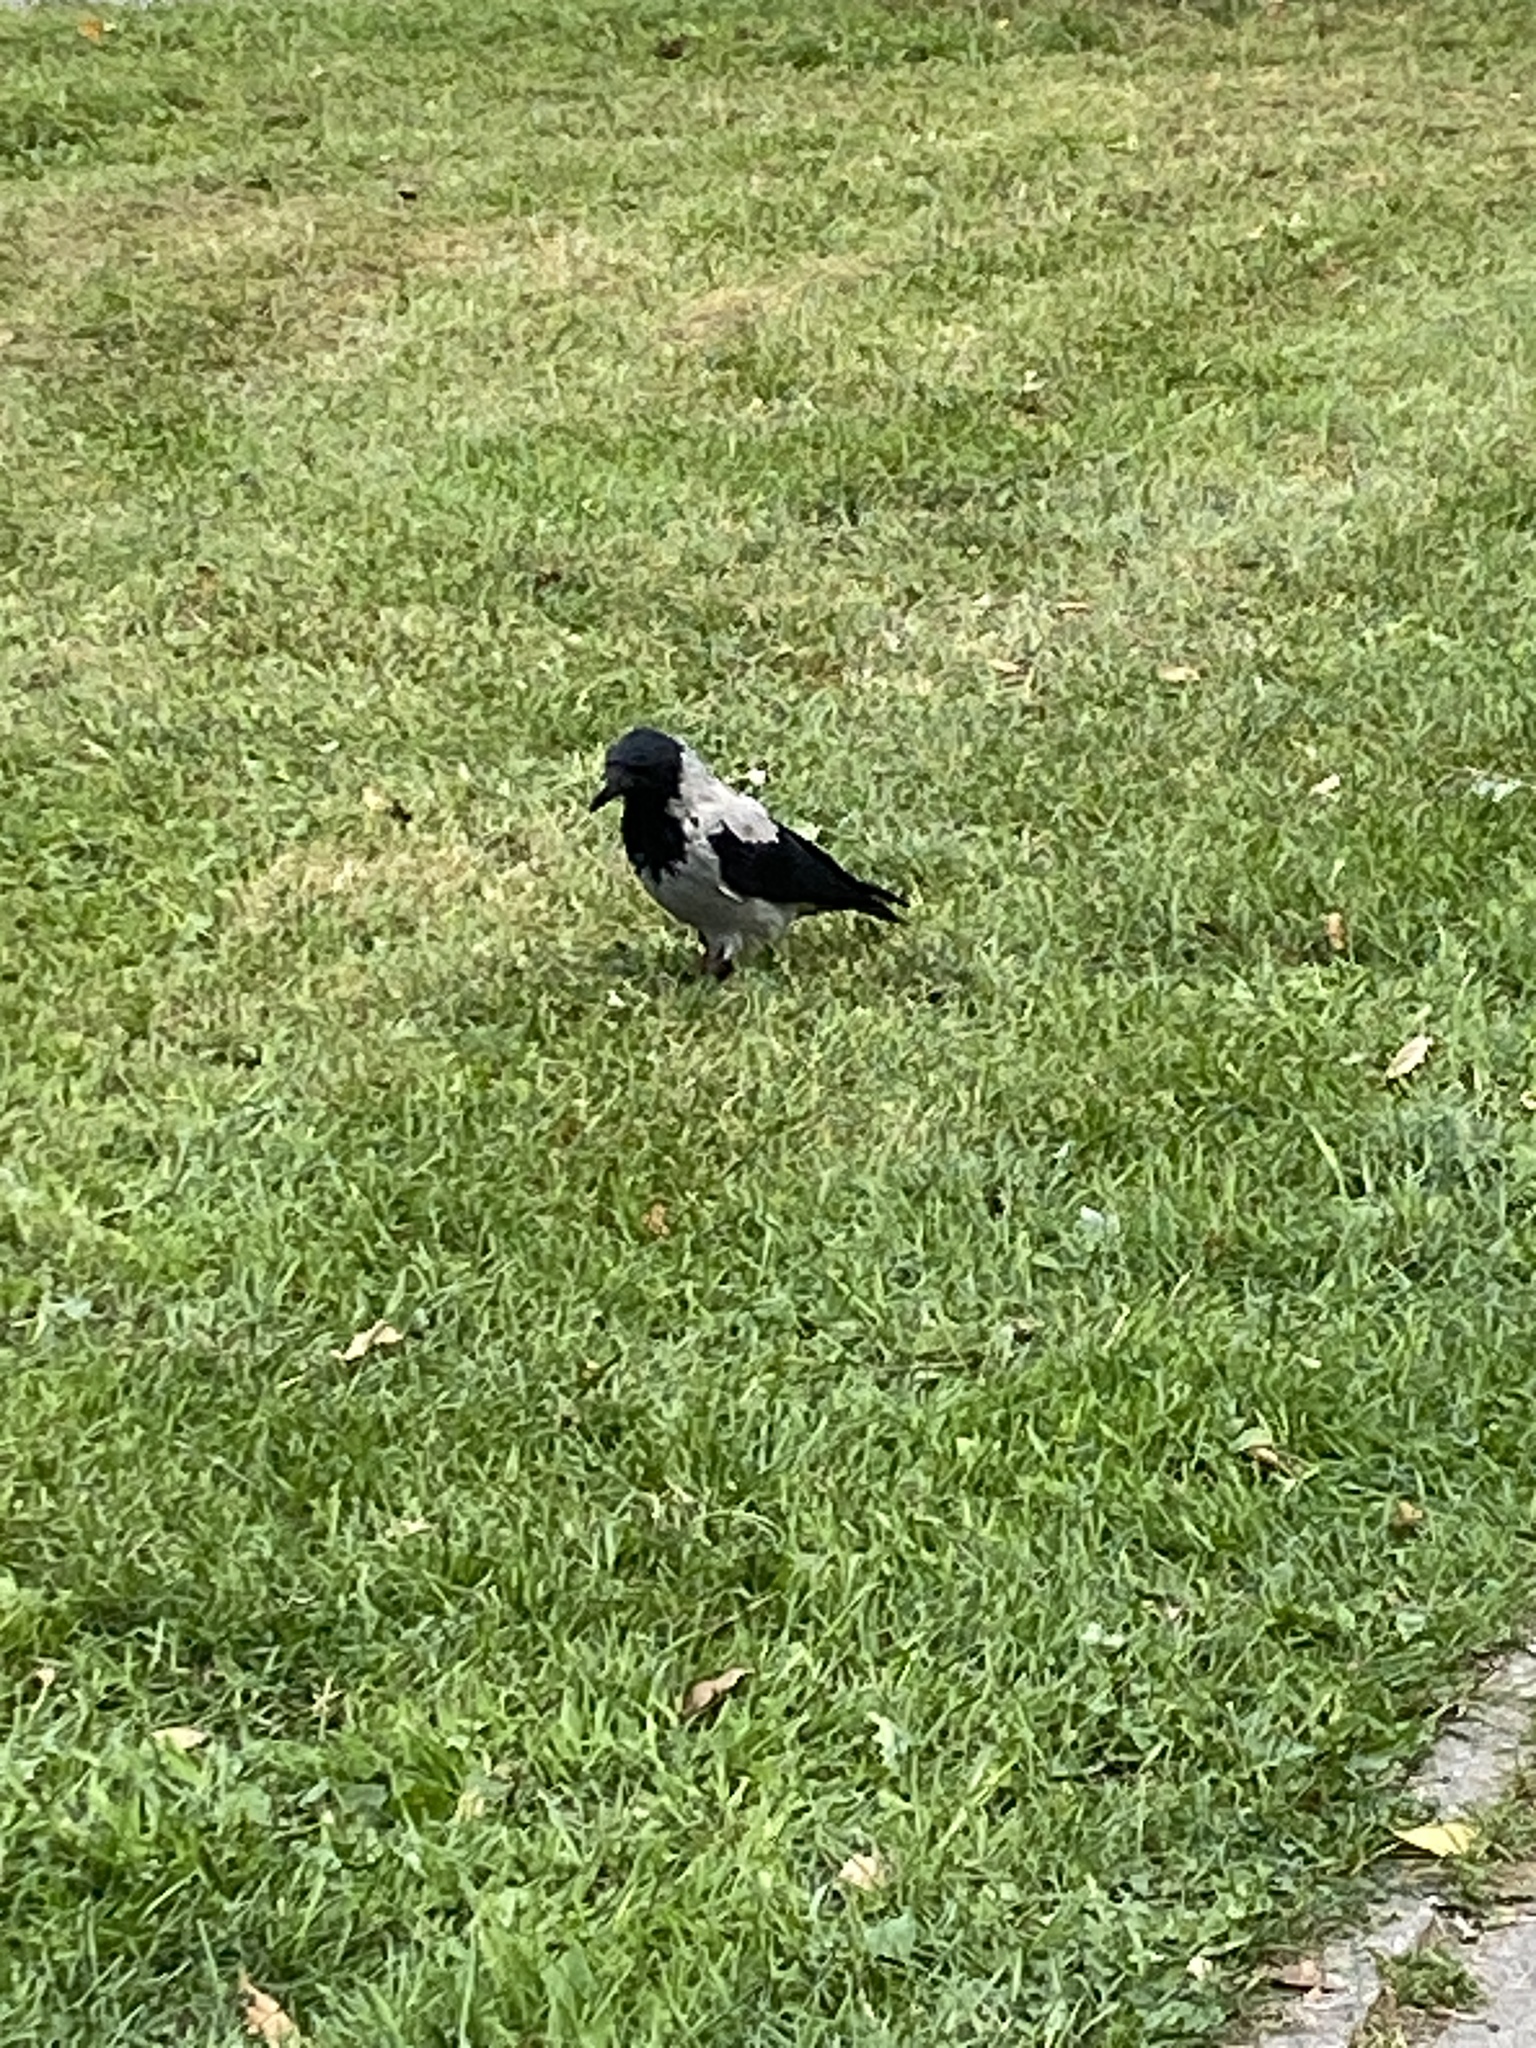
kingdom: Animalia
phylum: Chordata
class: Aves
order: Passeriformes
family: Corvidae
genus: Corvus
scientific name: Corvus cornix
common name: Hooded crow
